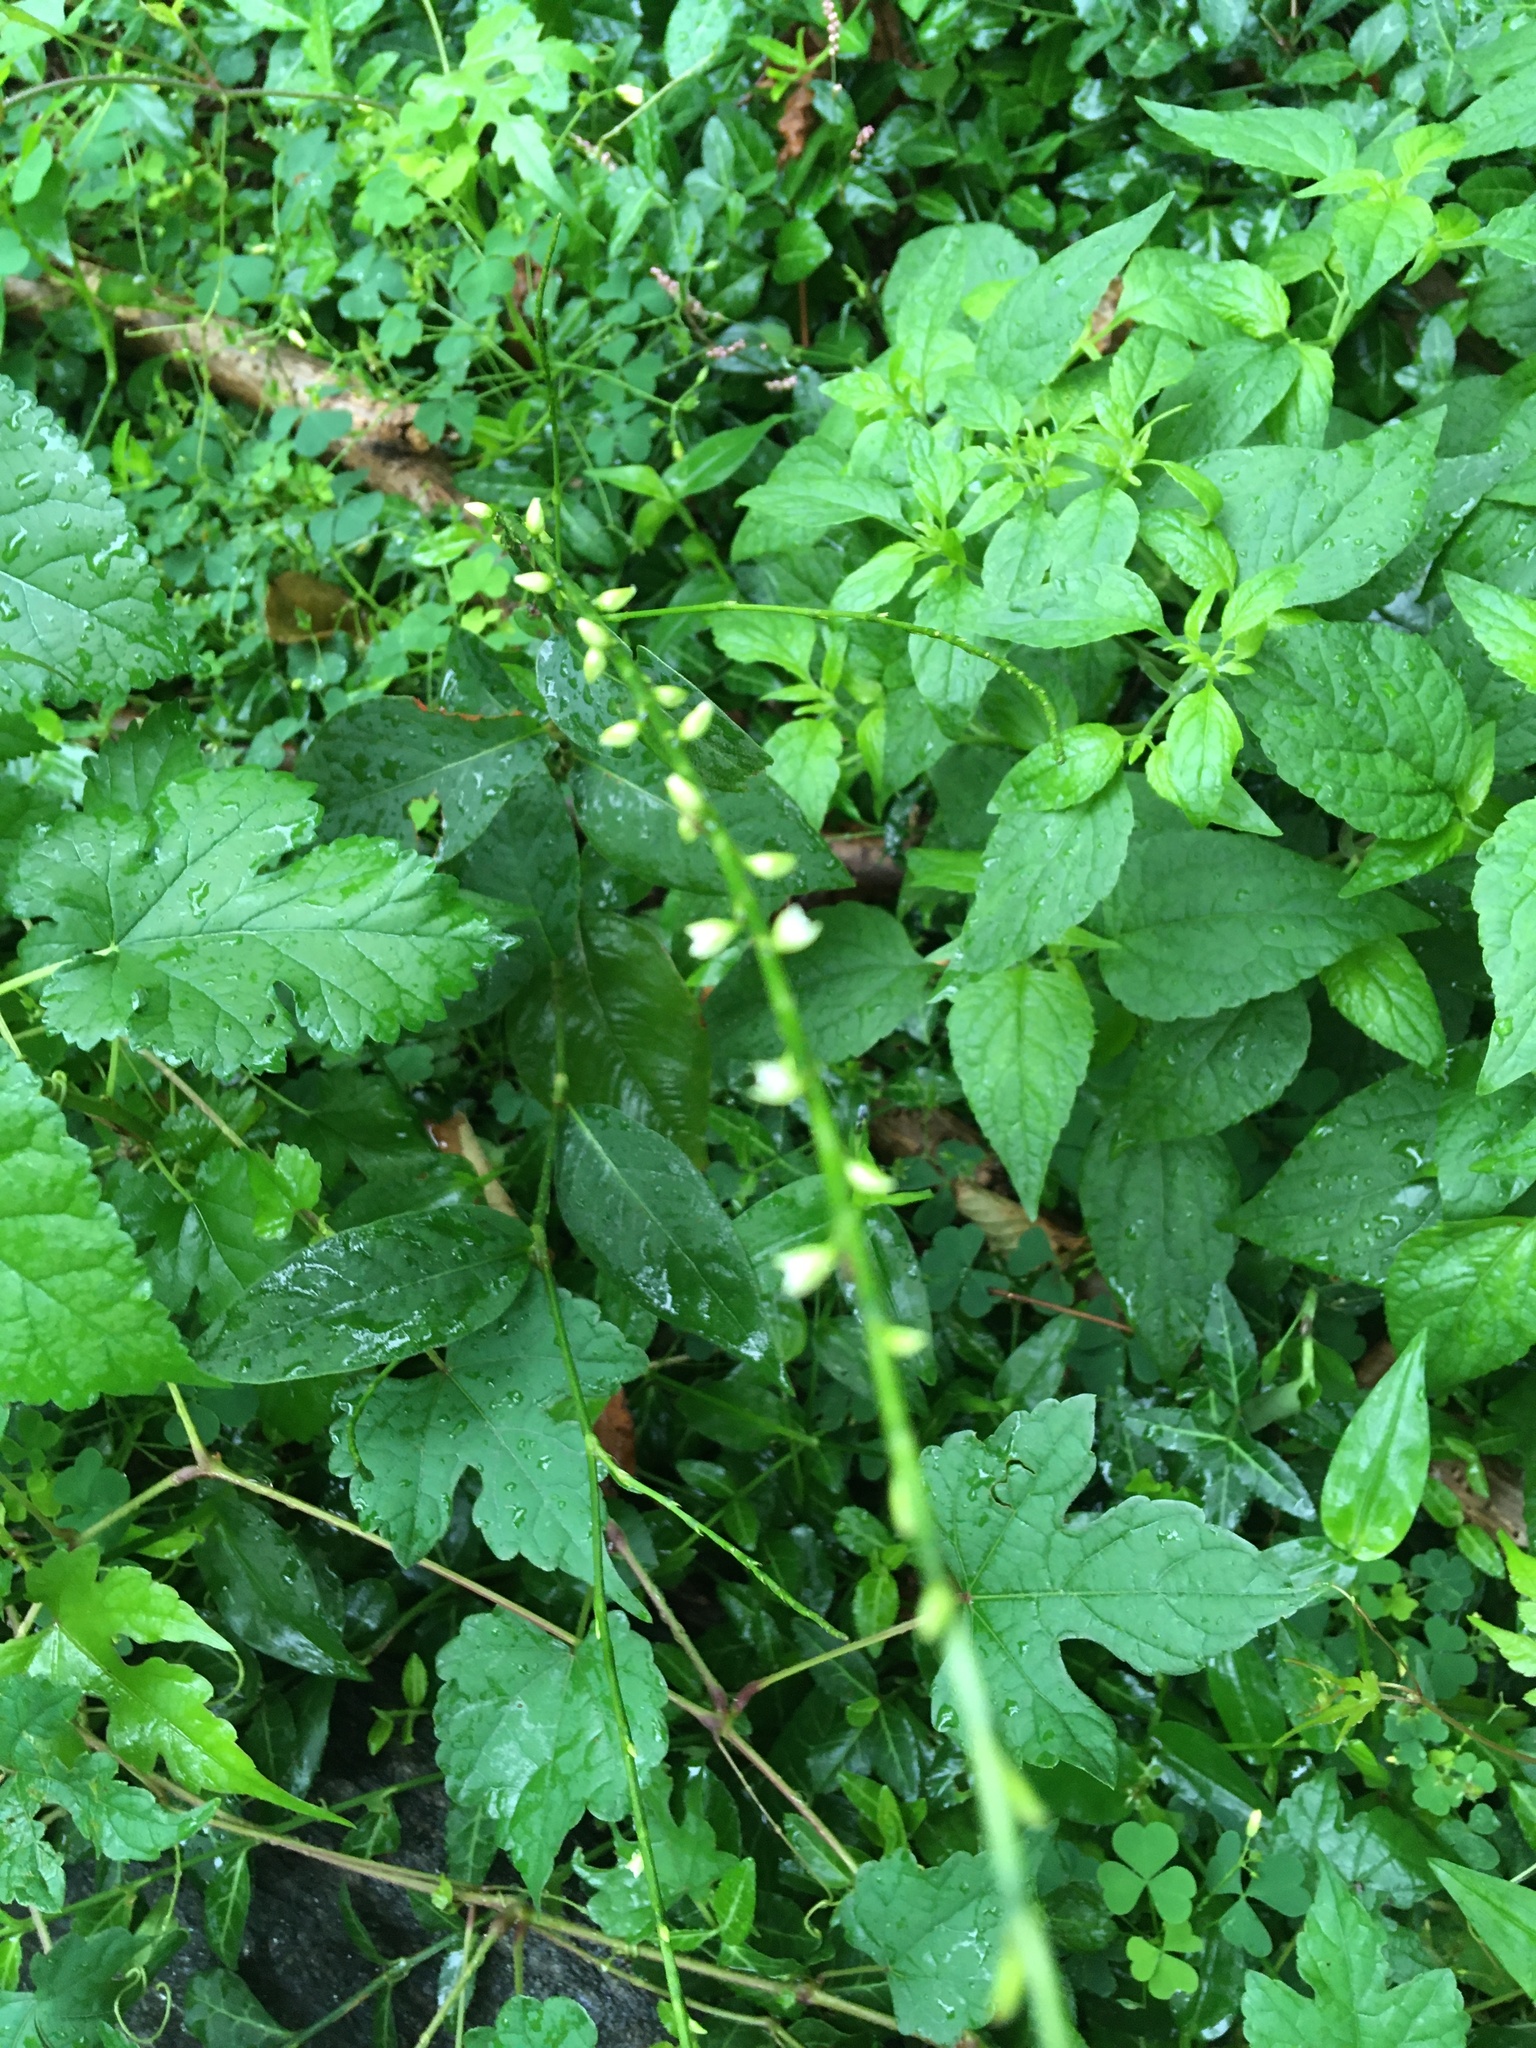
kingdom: Plantae
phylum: Tracheophyta
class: Magnoliopsida
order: Caryophyllales
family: Polygonaceae
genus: Persicaria
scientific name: Persicaria virginiana
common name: Jumpseed
